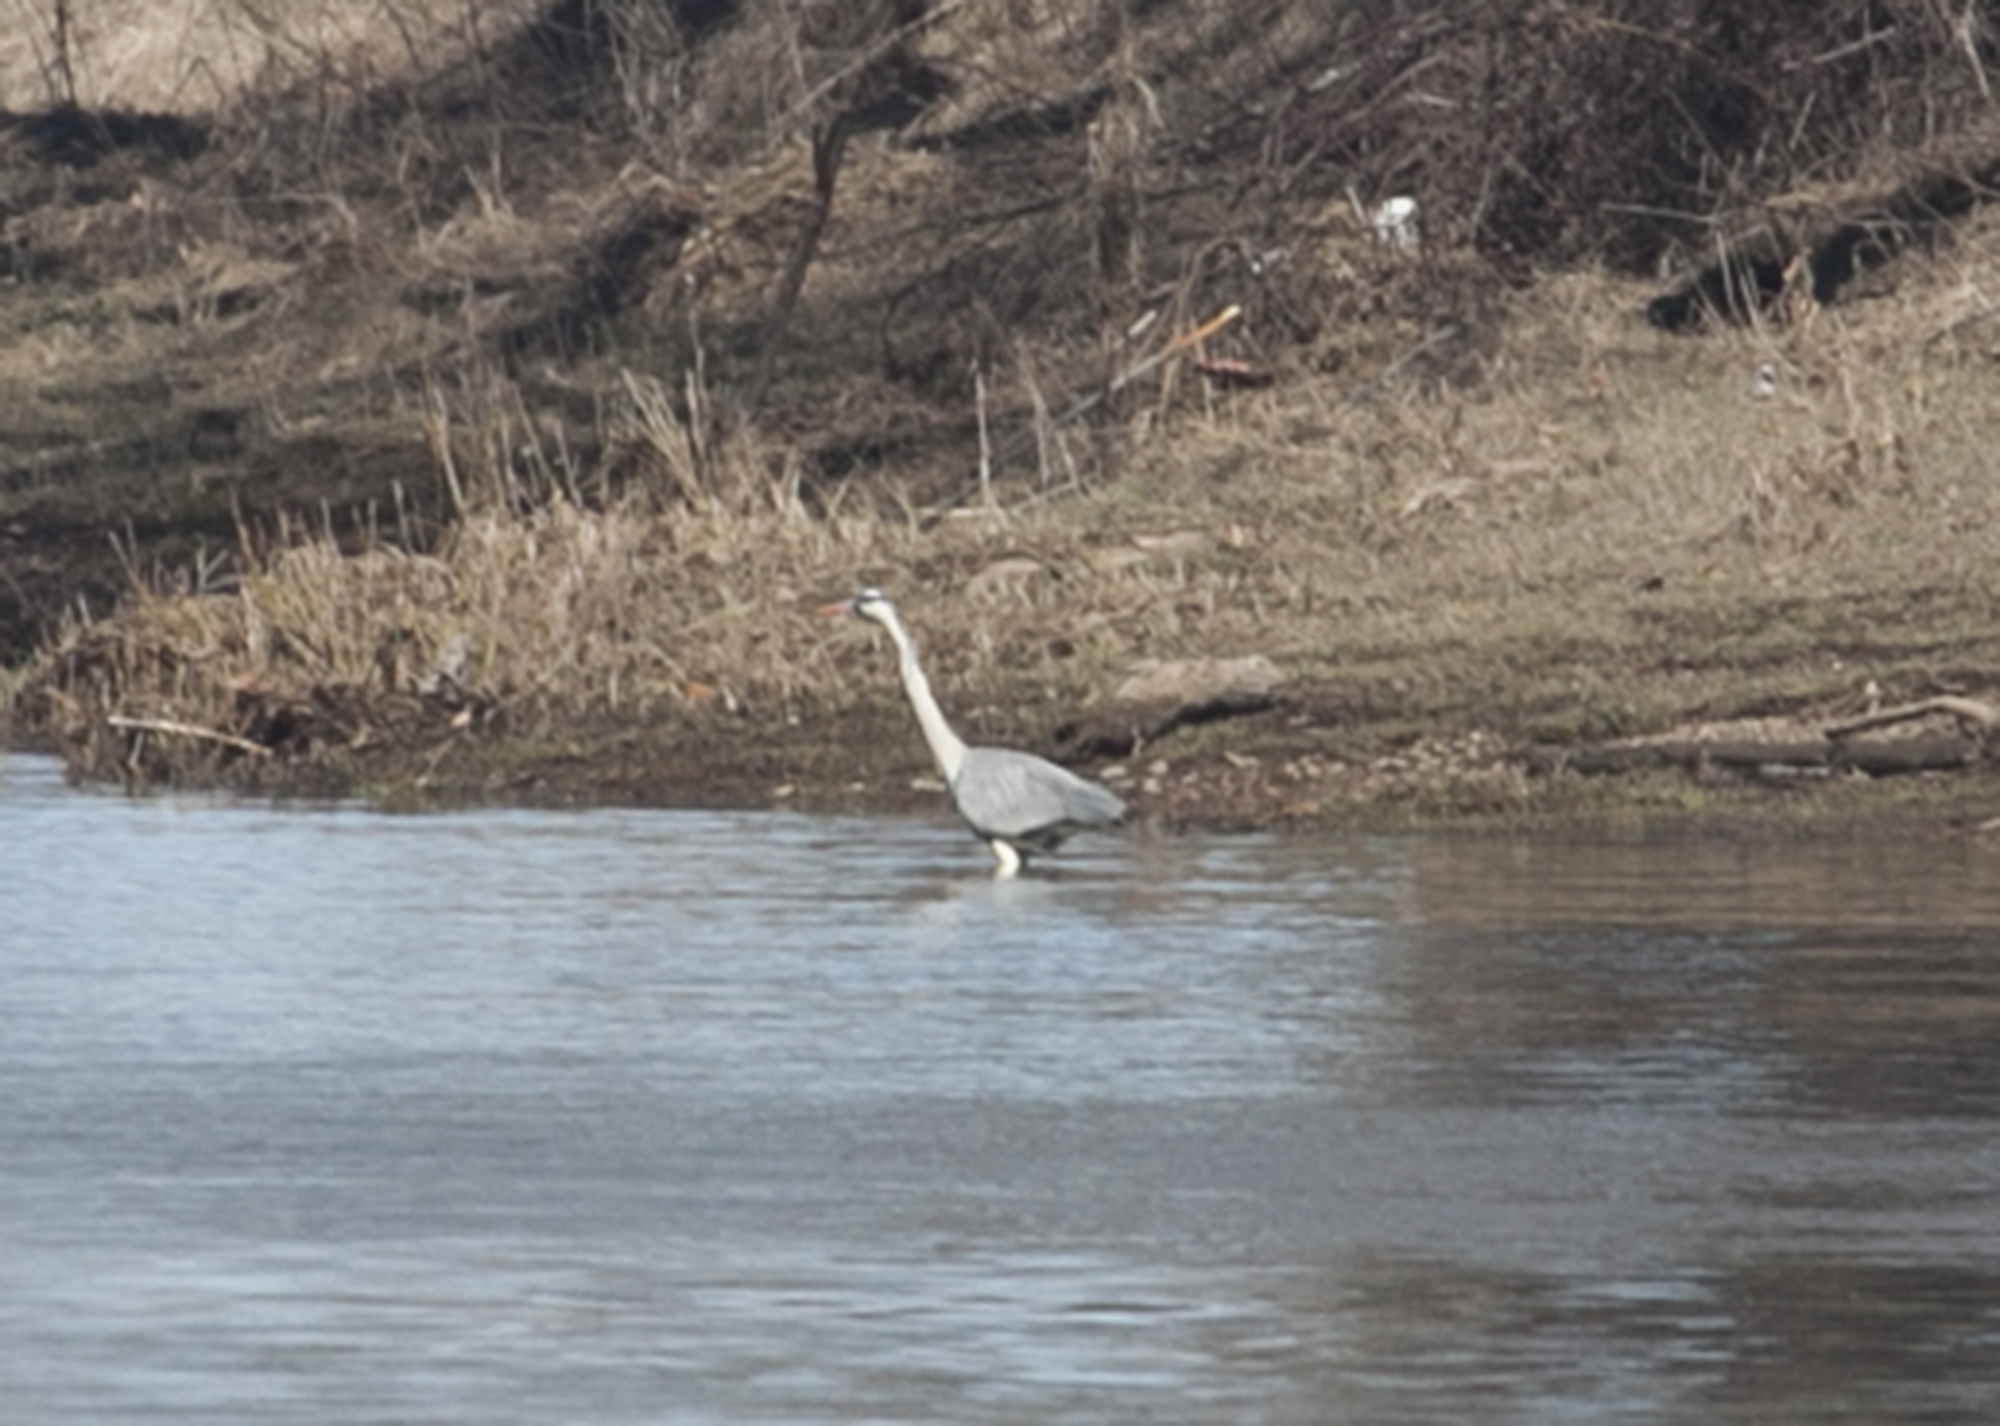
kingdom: Animalia
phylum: Chordata
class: Aves
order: Pelecaniformes
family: Ardeidae
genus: Ardea
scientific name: Ardea cinerea
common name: Grey heron
